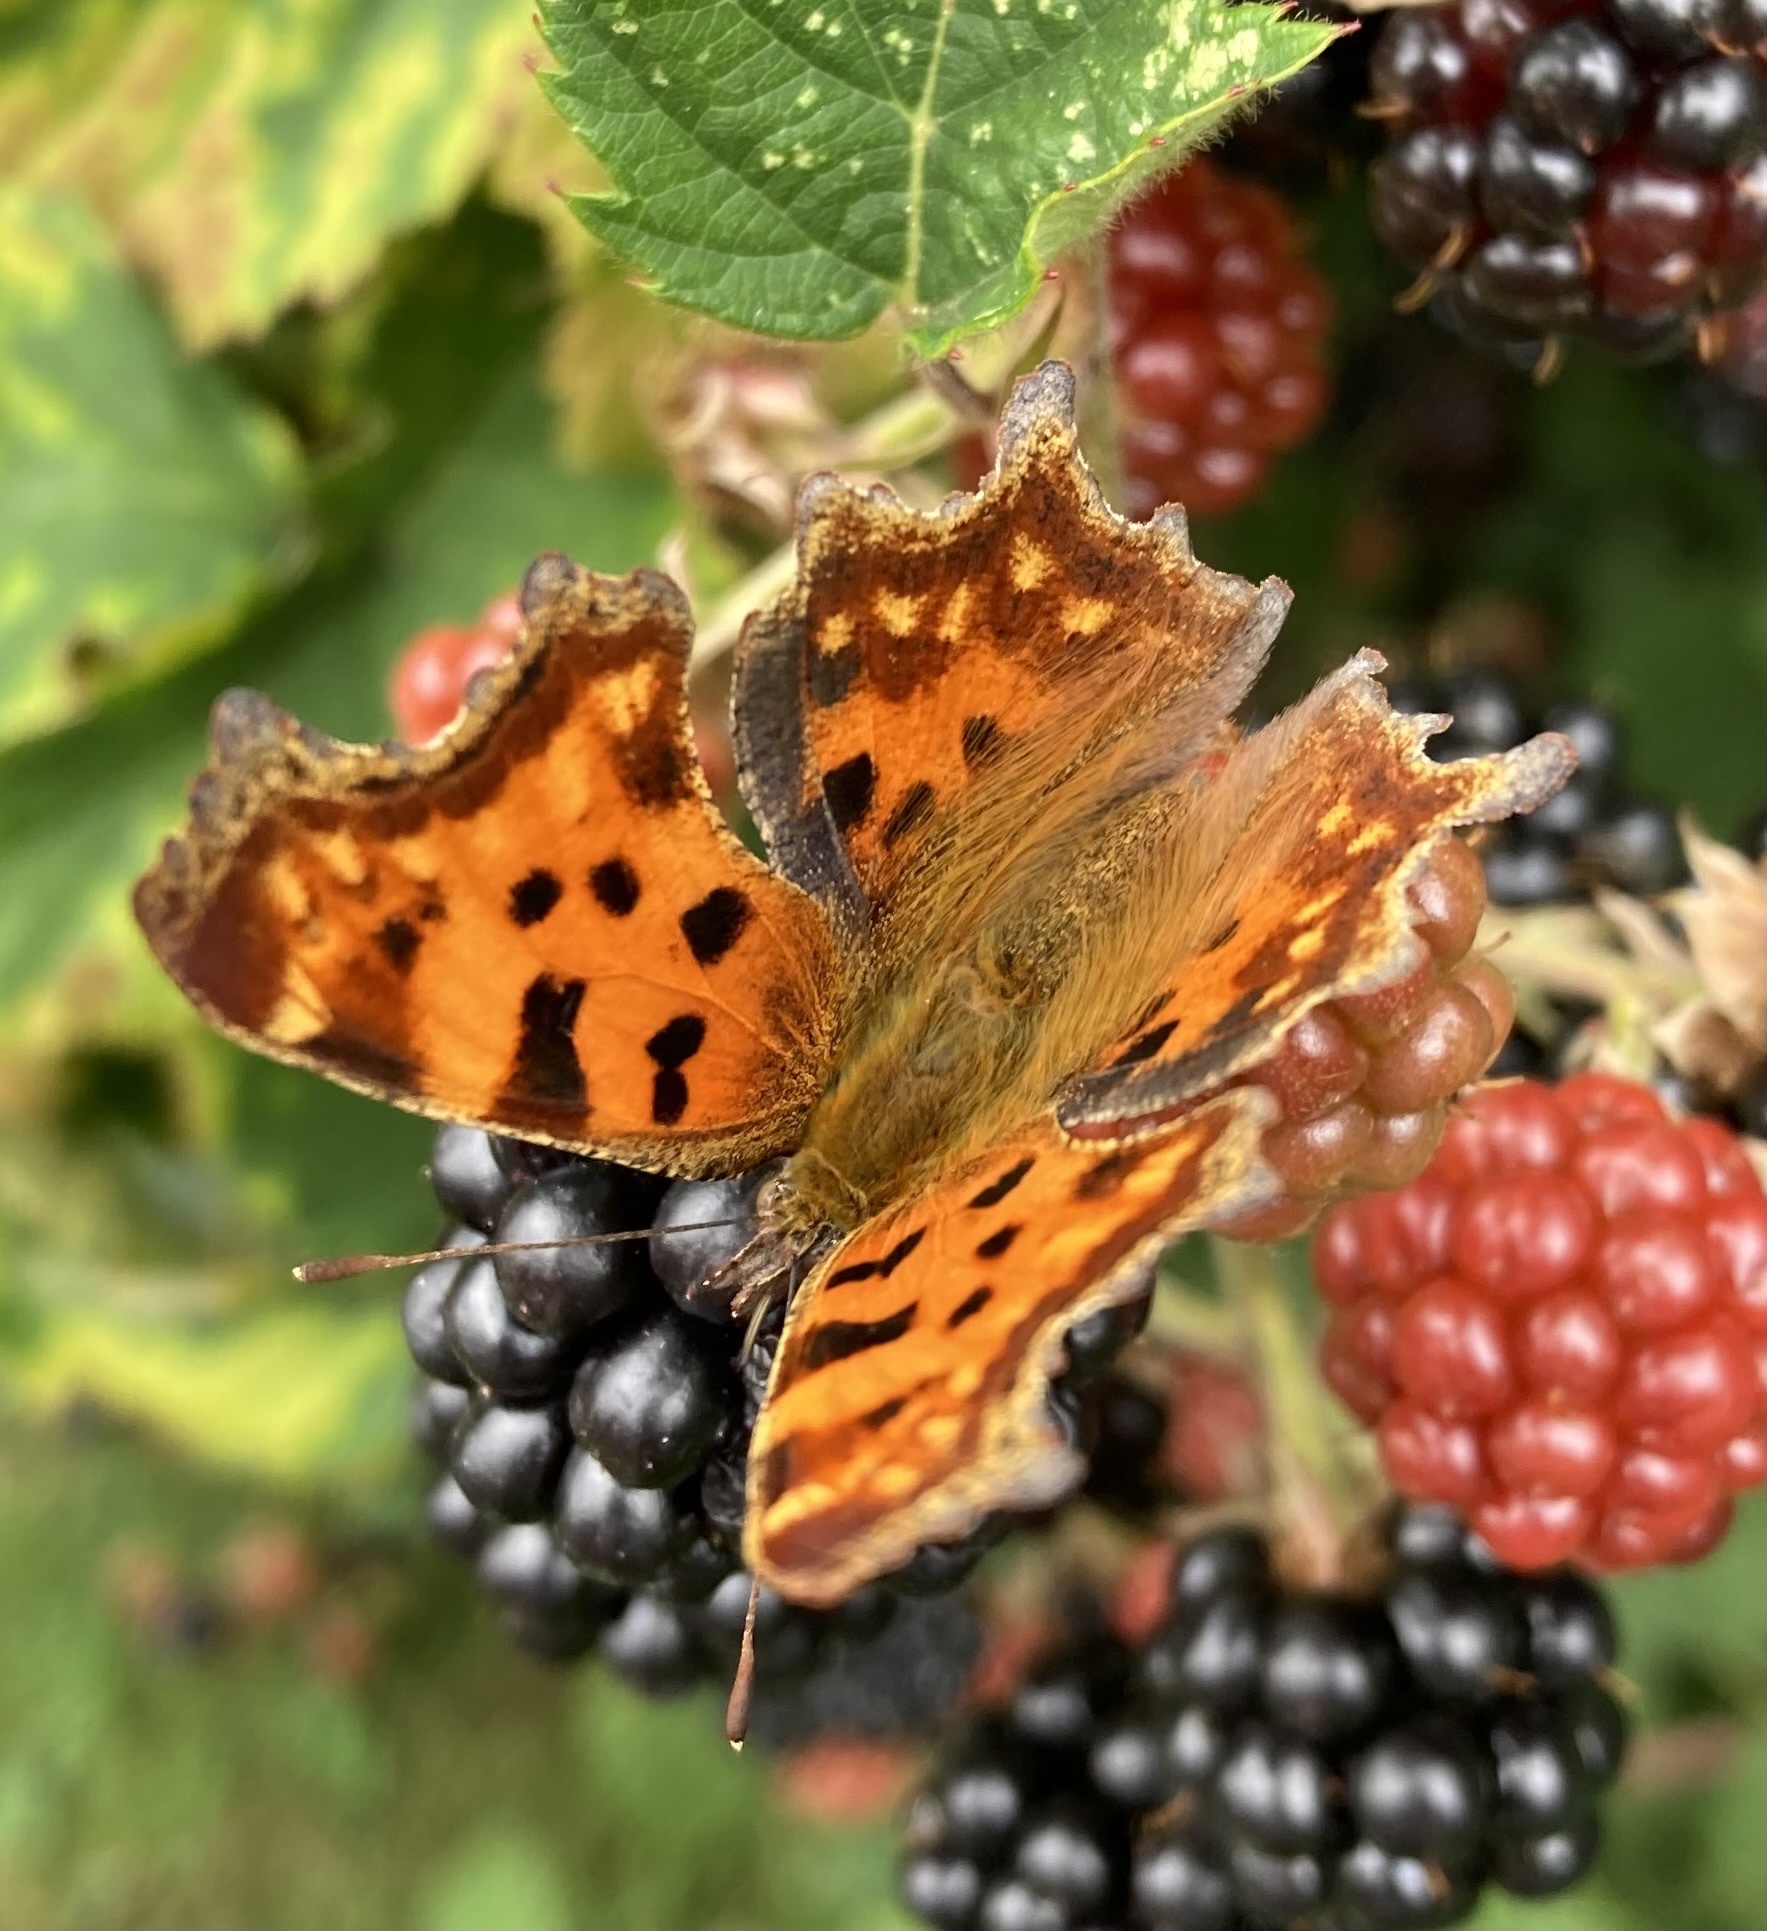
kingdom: Animalia
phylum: Arthropoda
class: Insecta
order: Lepidoptera
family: Nymphalidae
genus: Polygonia
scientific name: Polygonia c-album
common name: Comma
